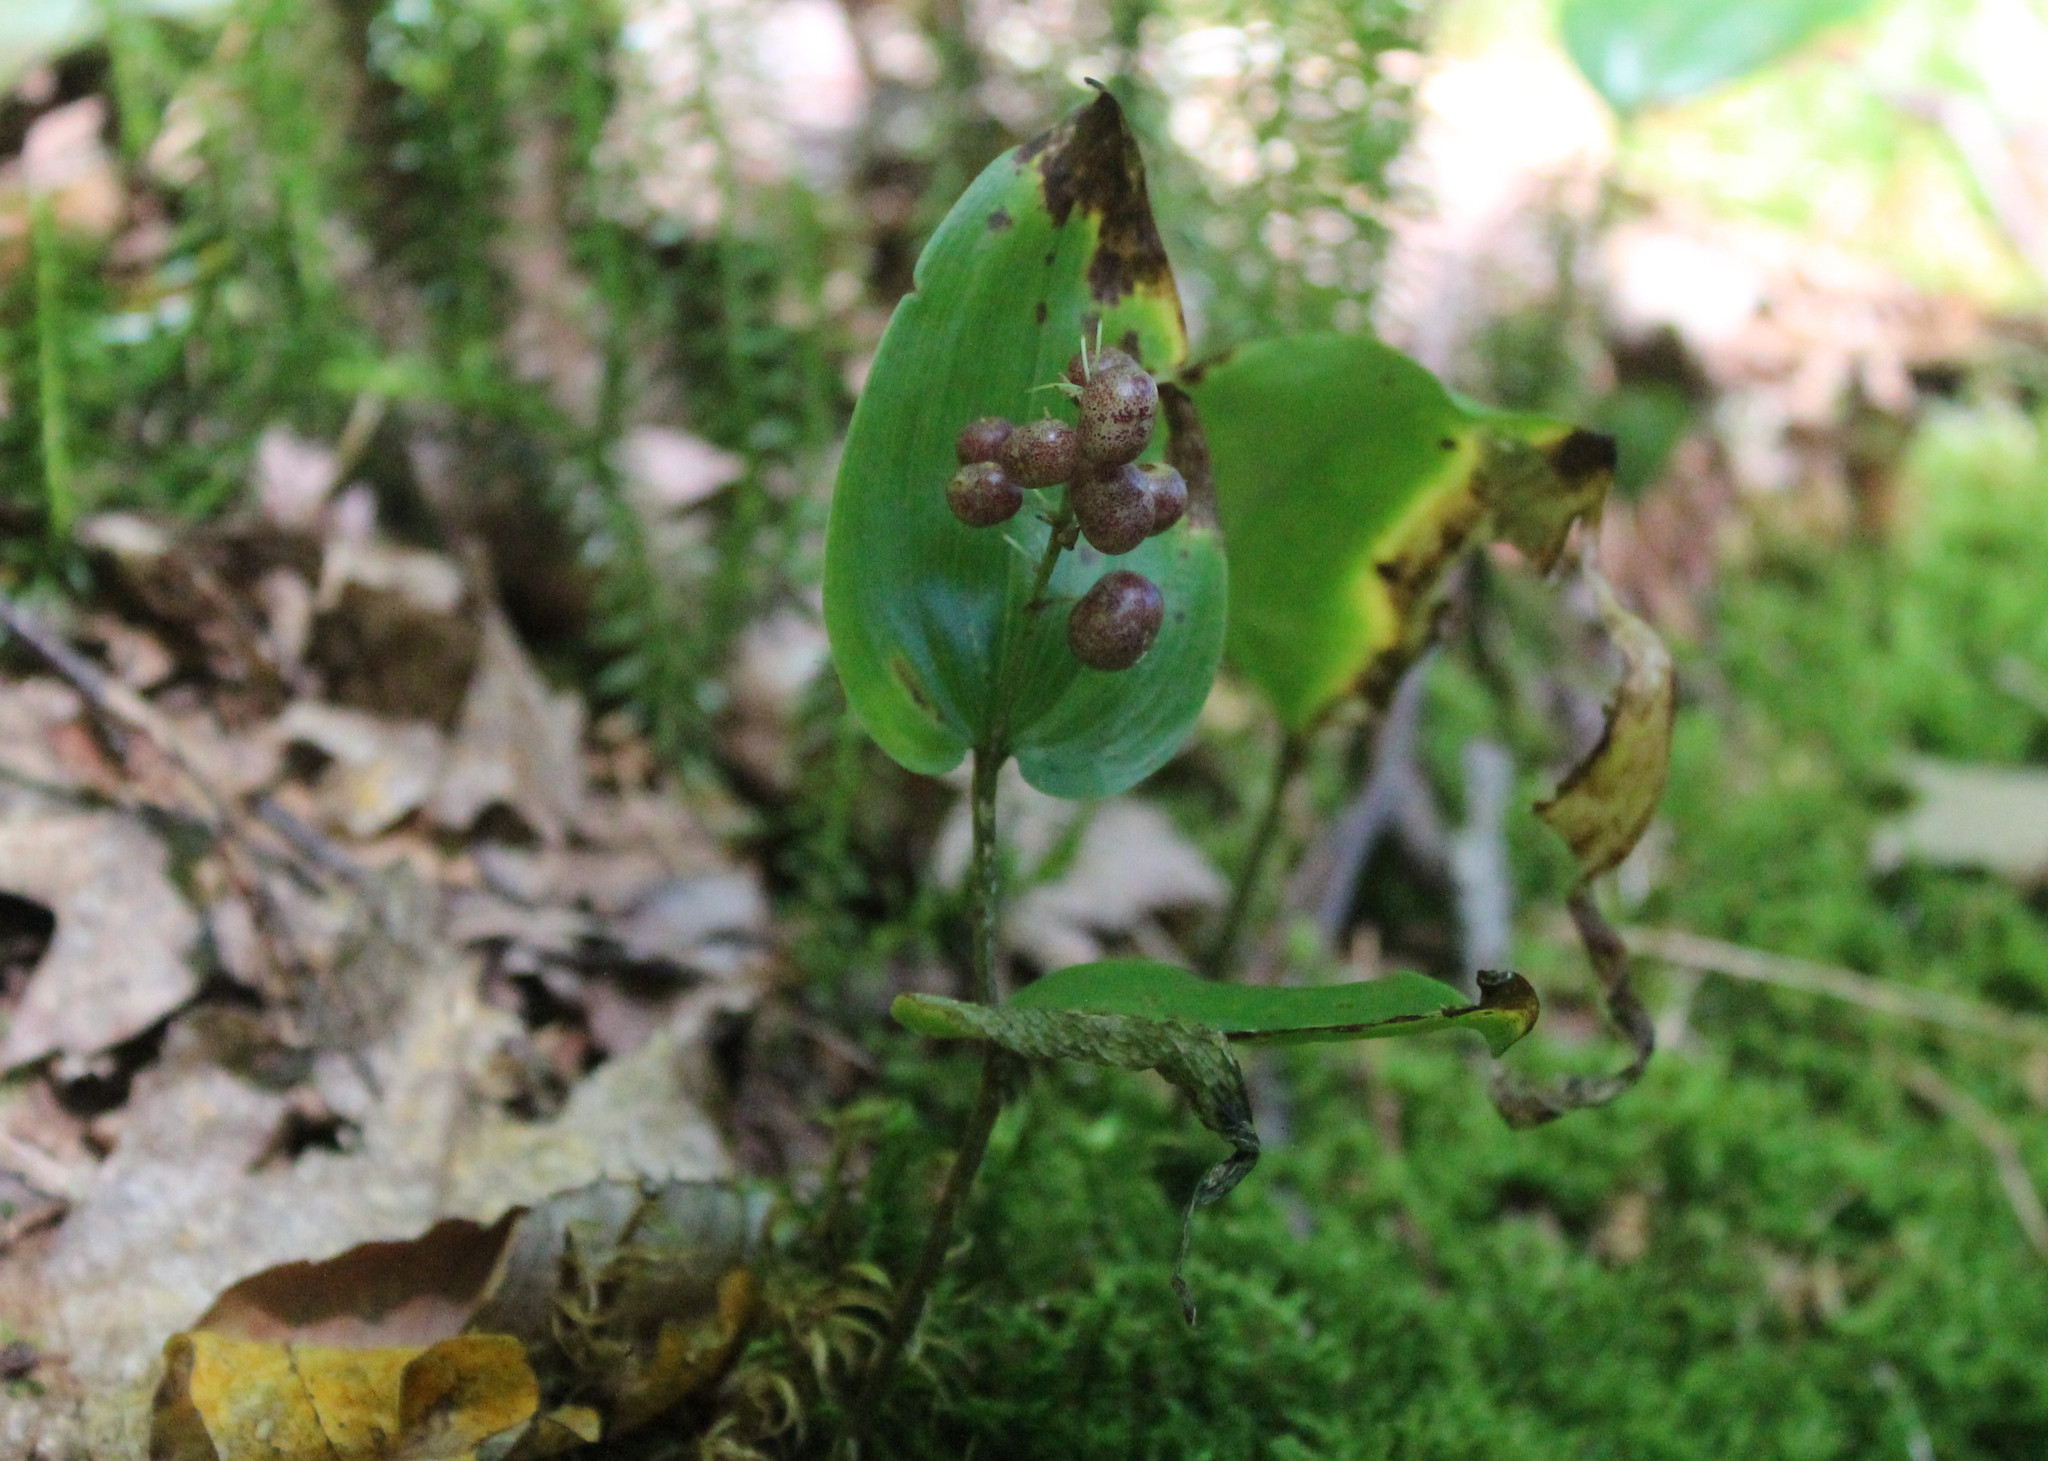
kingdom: Plantae
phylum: Tracheophyta
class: Liliopsida
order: Asparagales
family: Asparagaceae
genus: Maianthemum
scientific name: Maianthemum canadense
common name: False lily-of-the-valley
